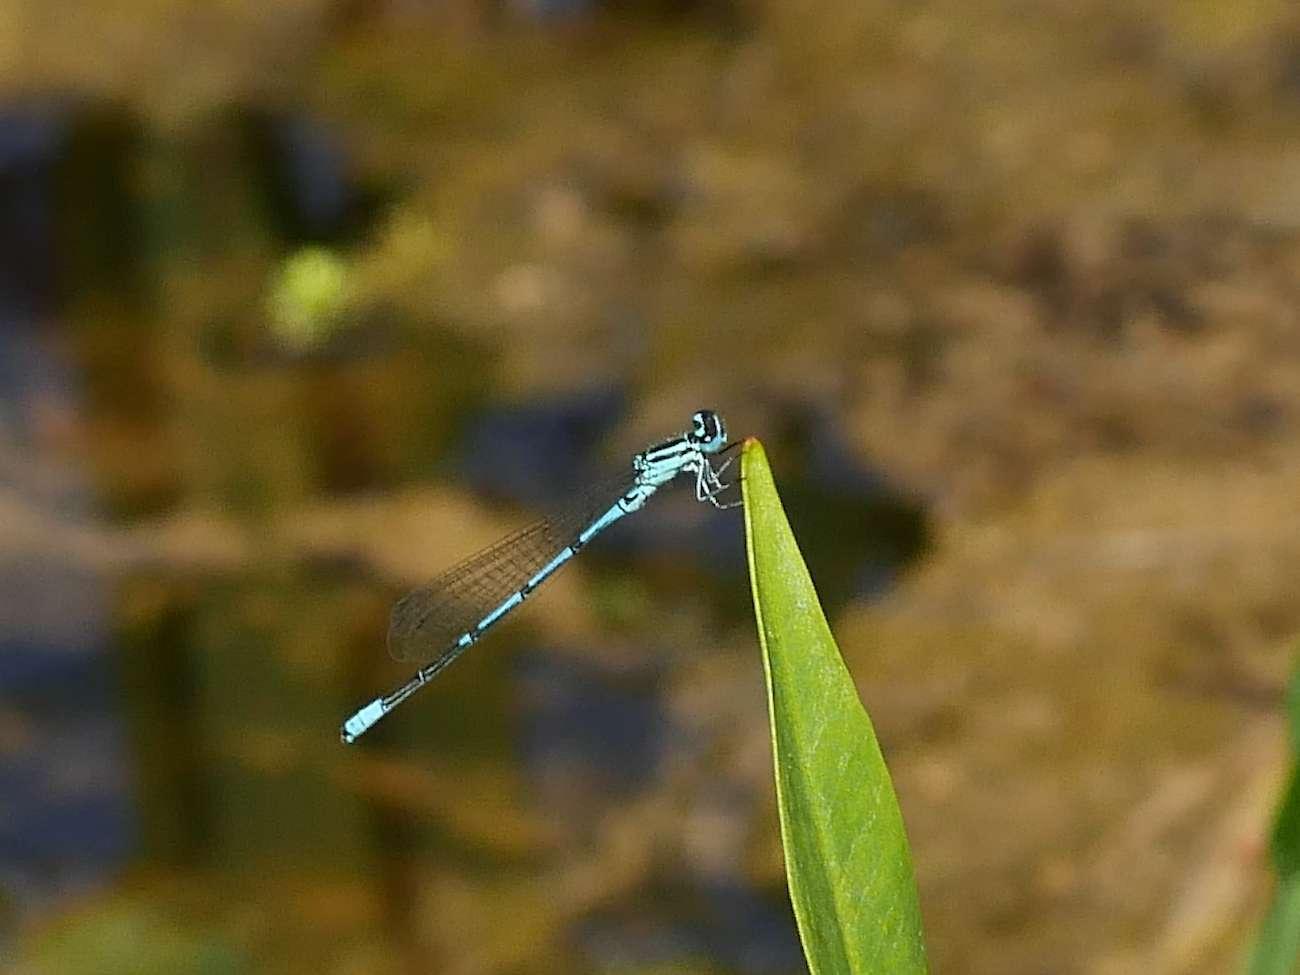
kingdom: Animalia
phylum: Arthropoda
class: Insecta
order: Odonata
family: Coenagrionidae
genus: Coenagrion
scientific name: Coenagrion puella
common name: Azure damselfly
